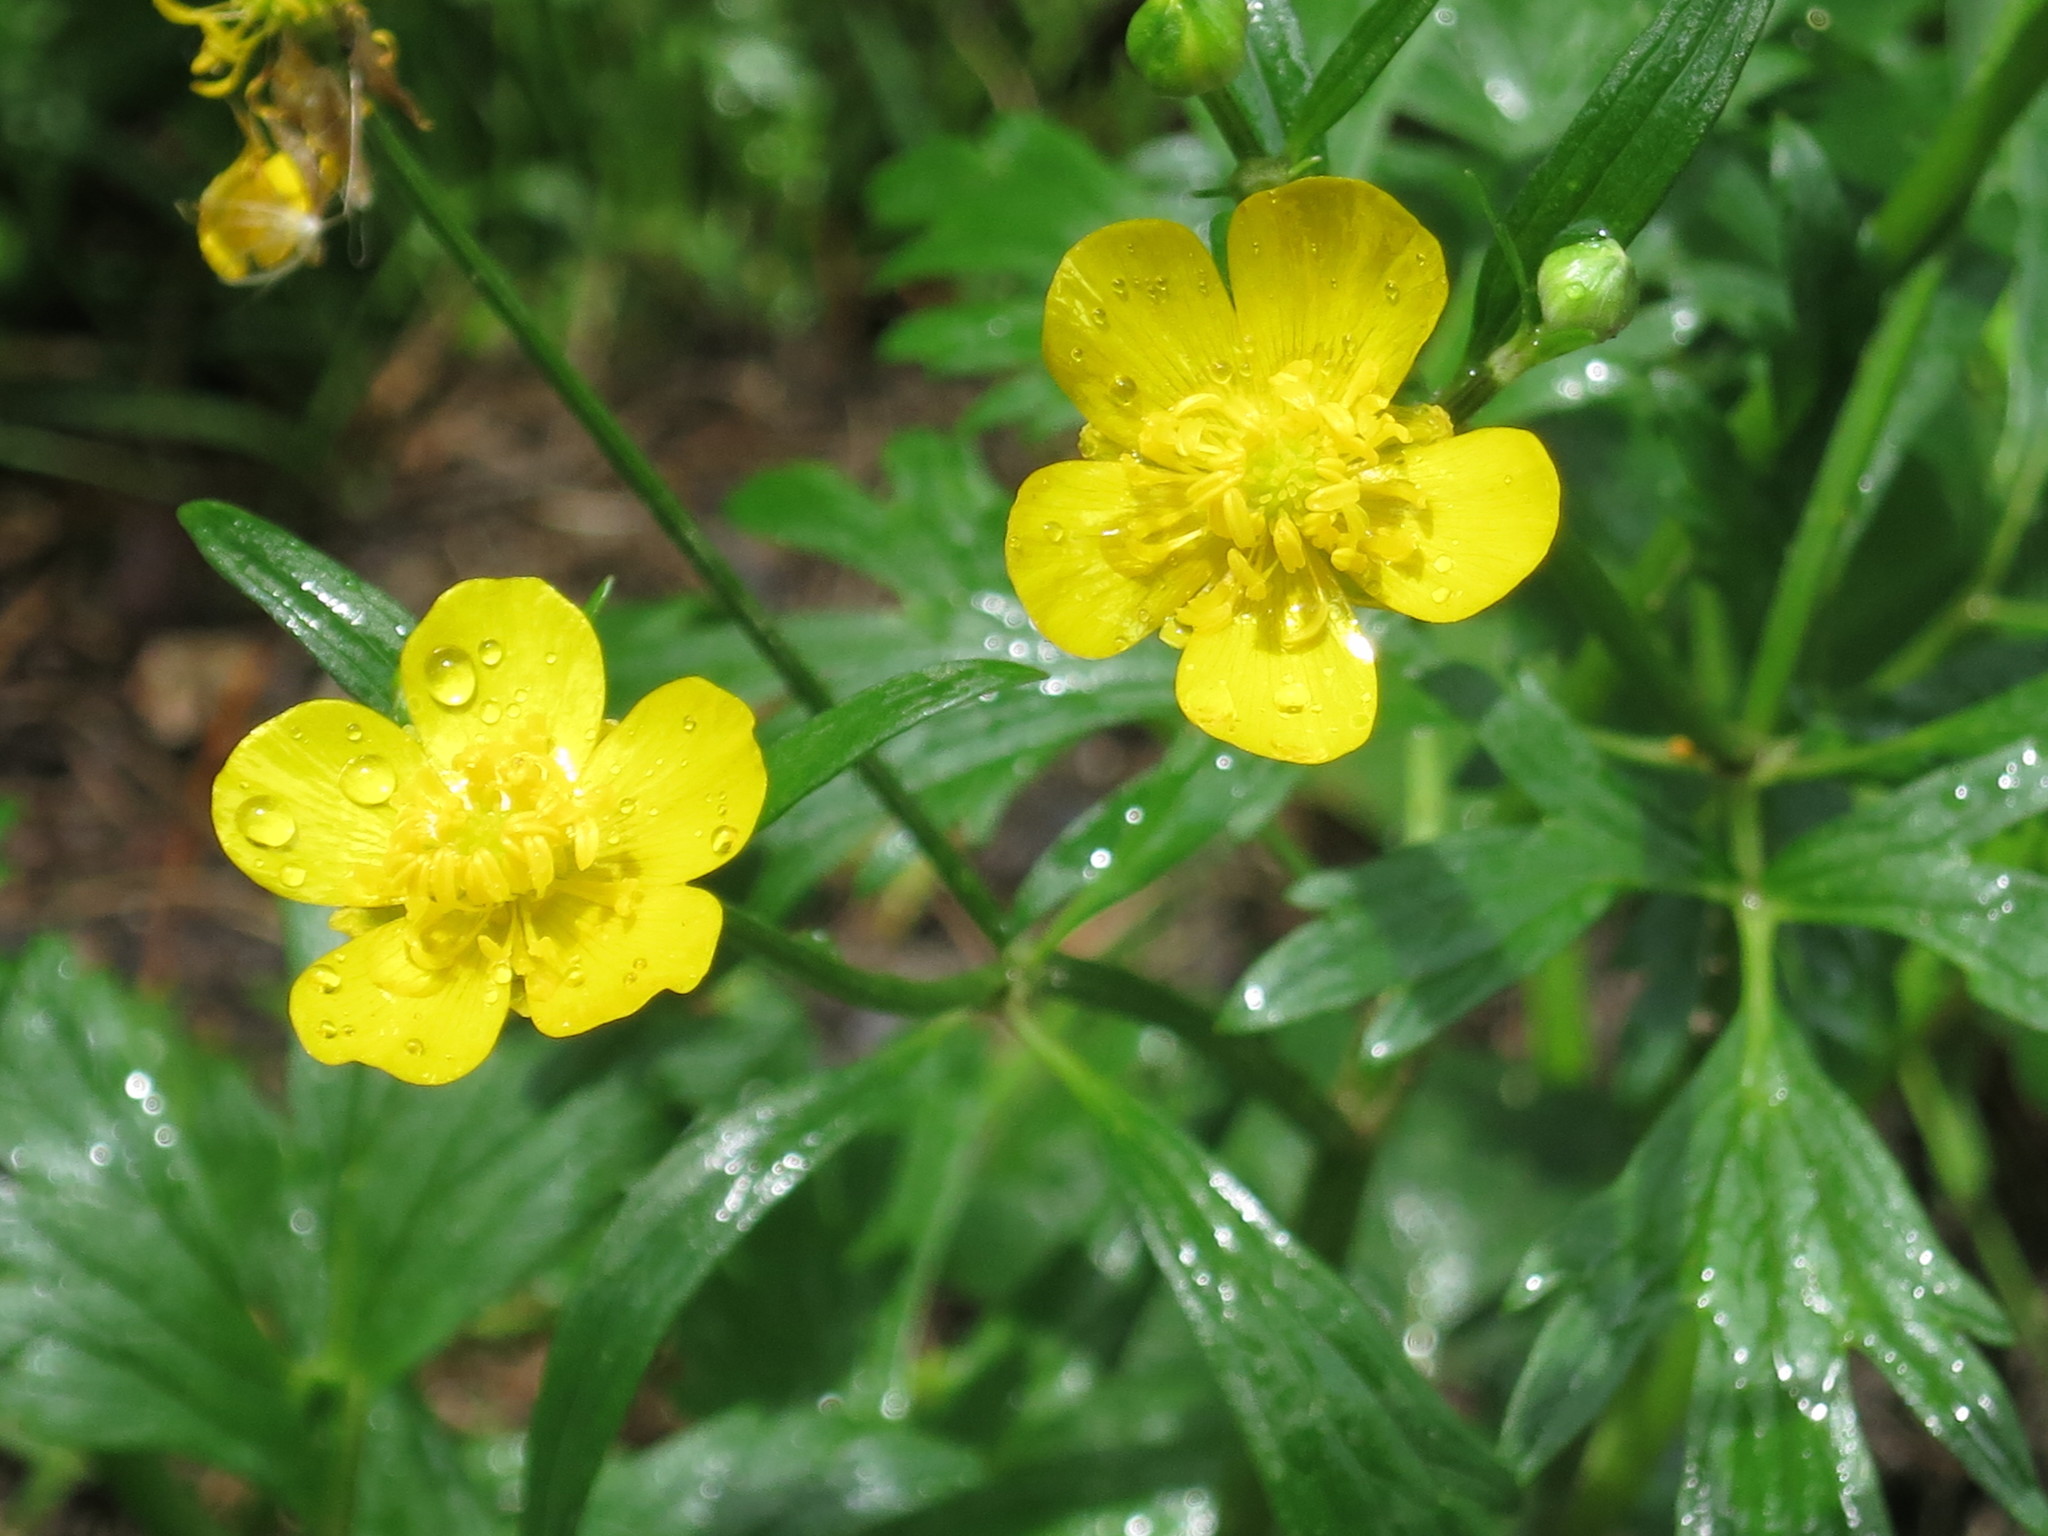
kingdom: Plantae
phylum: Tracheophyta
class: Magnoliopsida
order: Ranunculales
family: Ranunculaceae
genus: Ranunculus
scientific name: Ranunculus repens
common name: Creeping buttercup
